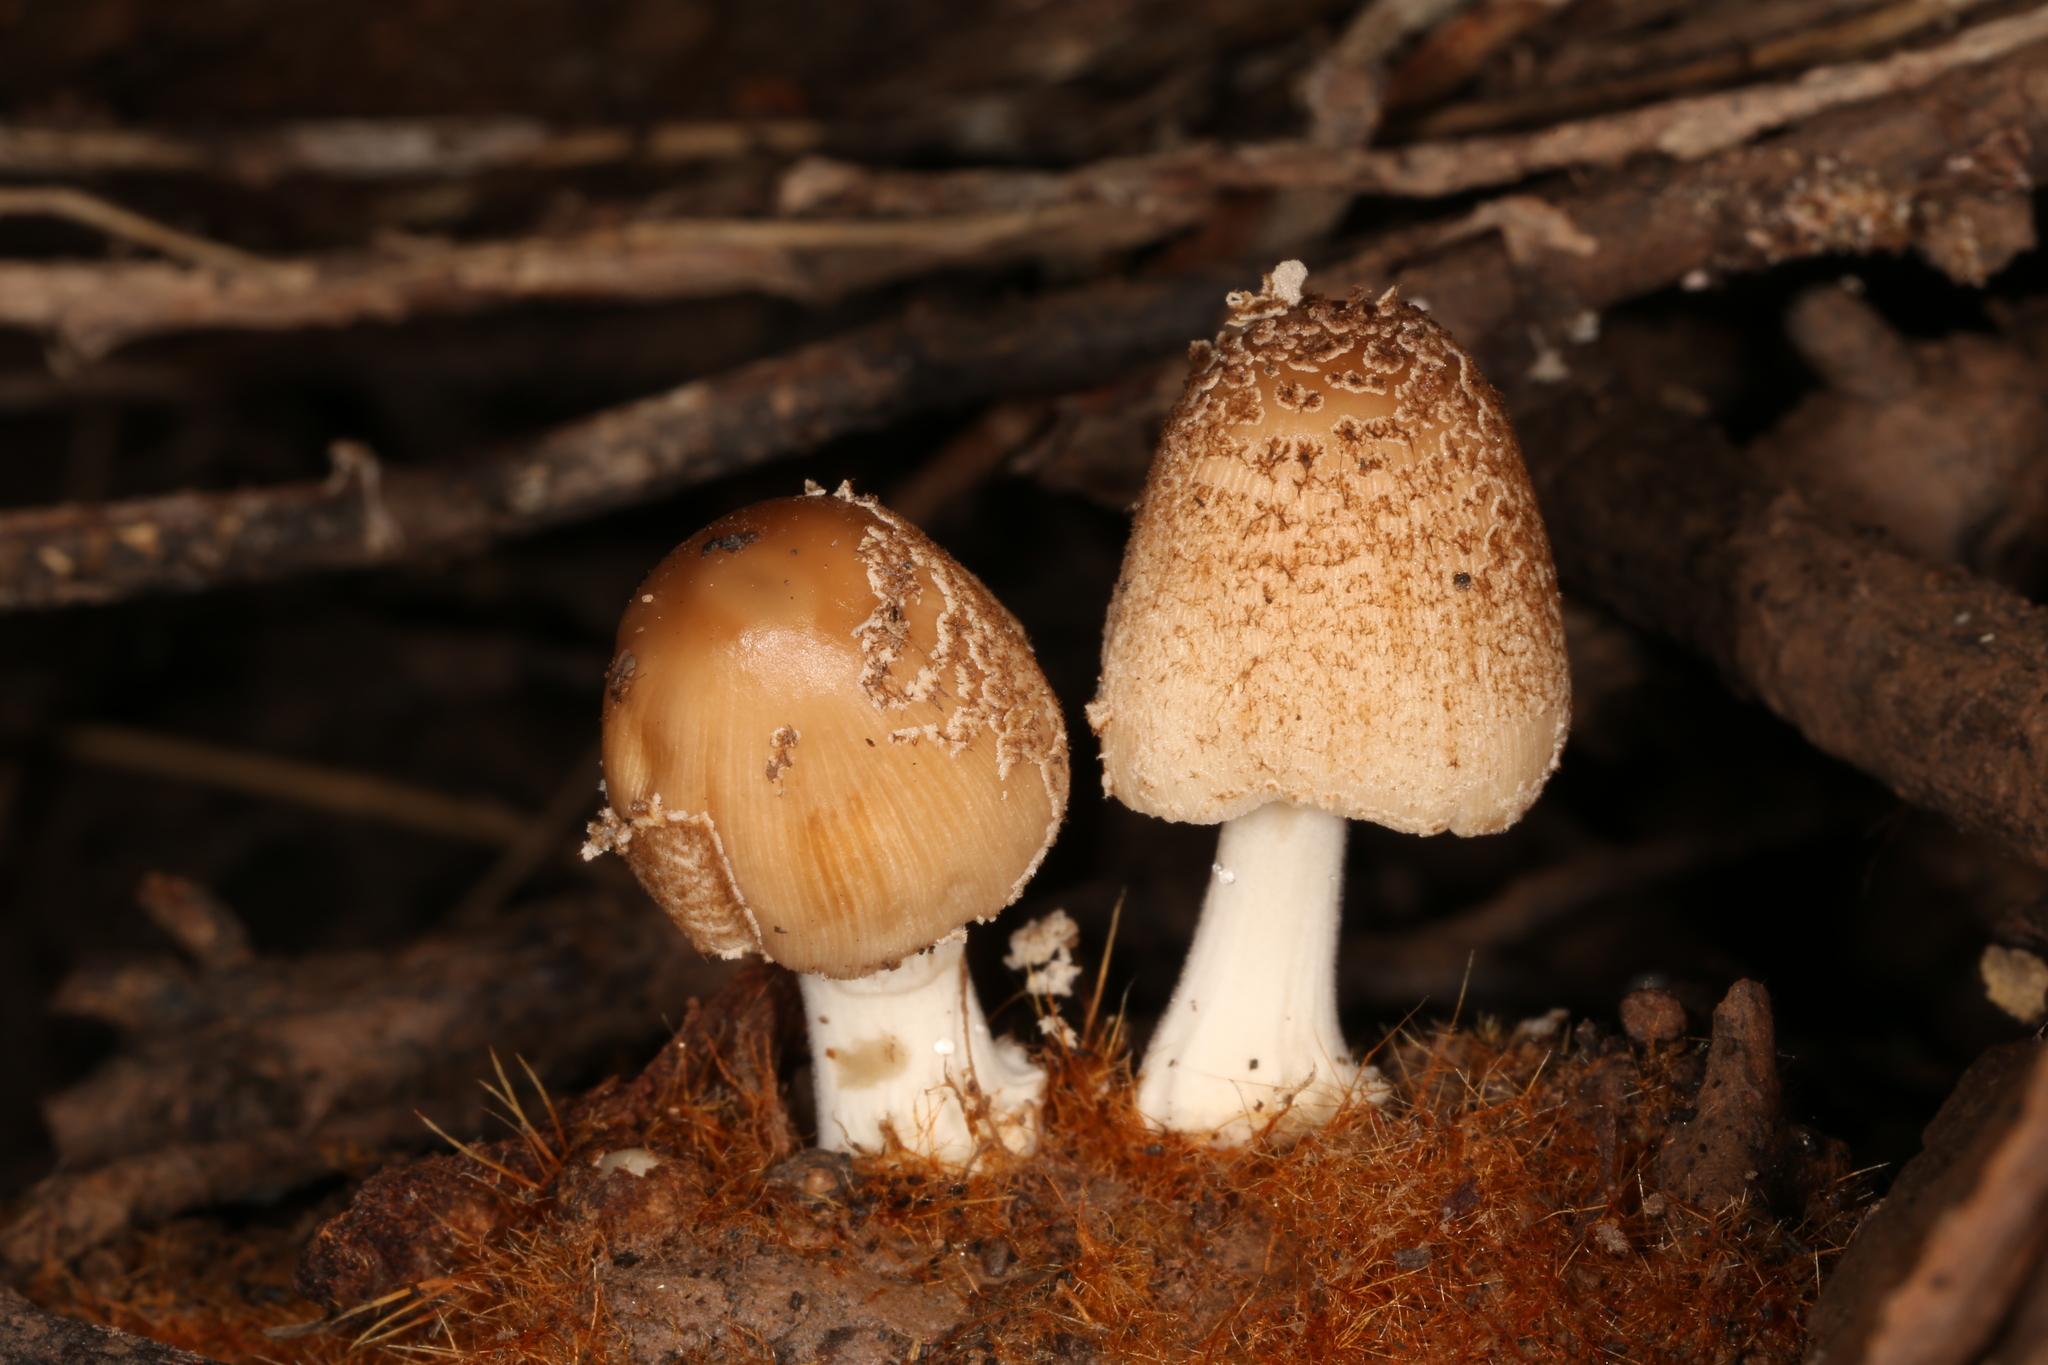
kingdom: Fungi
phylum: Basidiomycota
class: Agaricomycetes
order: Agaricales
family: Psathyrellaceae
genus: Coprinellus
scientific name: Coprinellus radians
